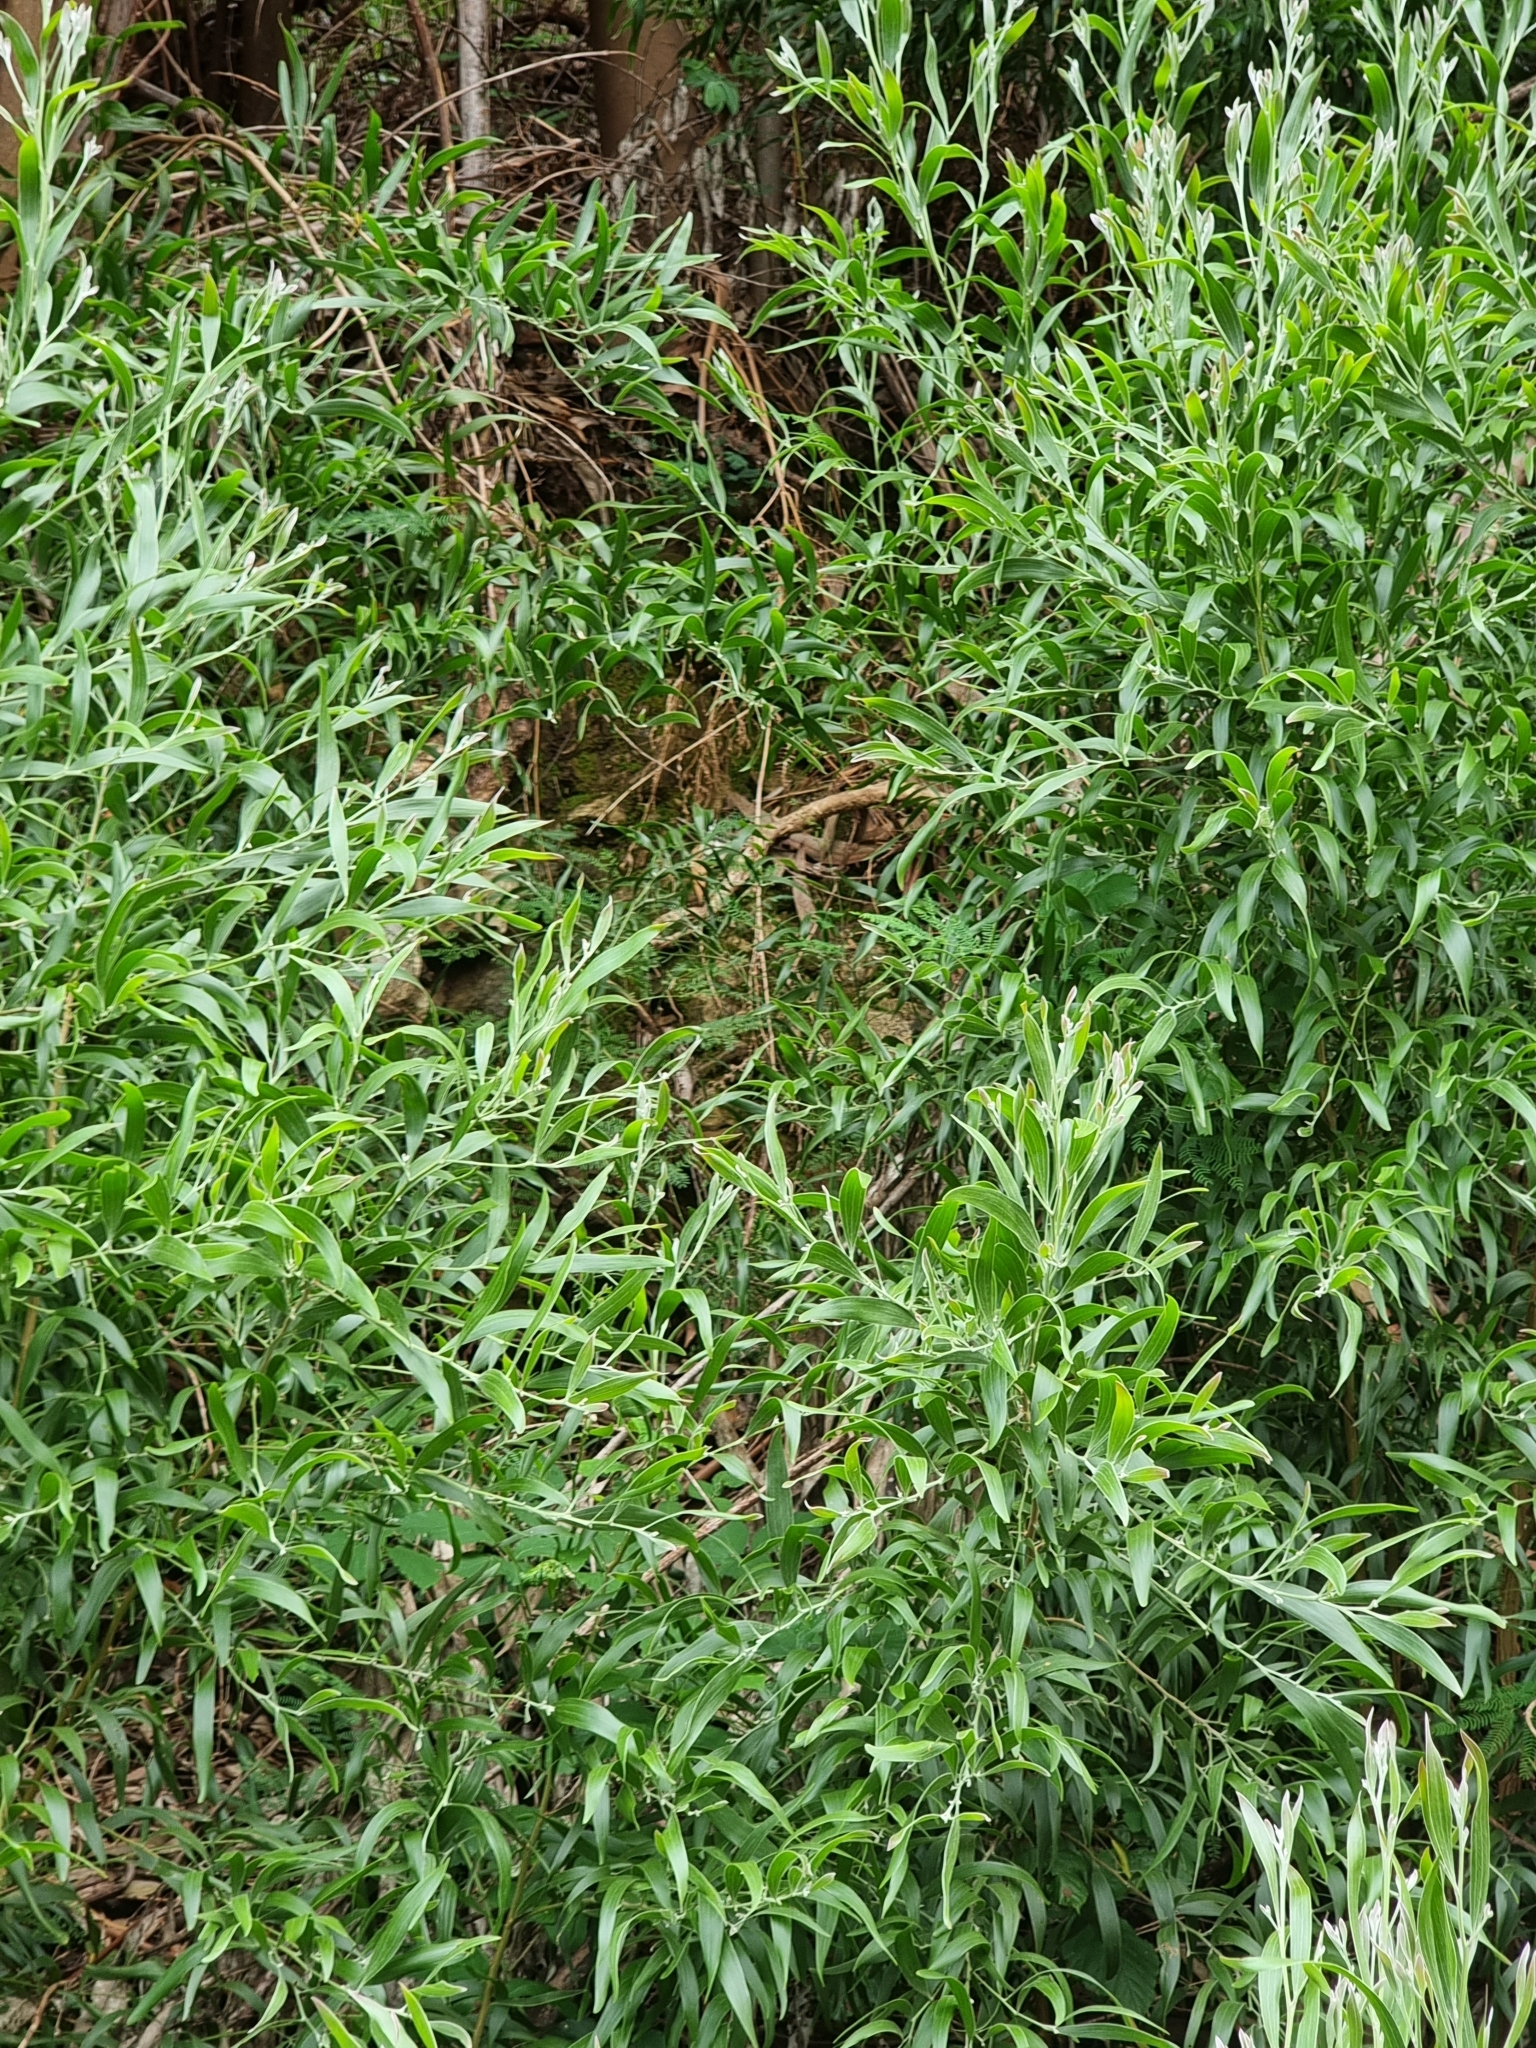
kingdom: Plantae
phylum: Tracheophyta
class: Magnoliopsida
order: Fabales
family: Fabaceae
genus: Acacia
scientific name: Acacia melanoxylon
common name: Blackwood
